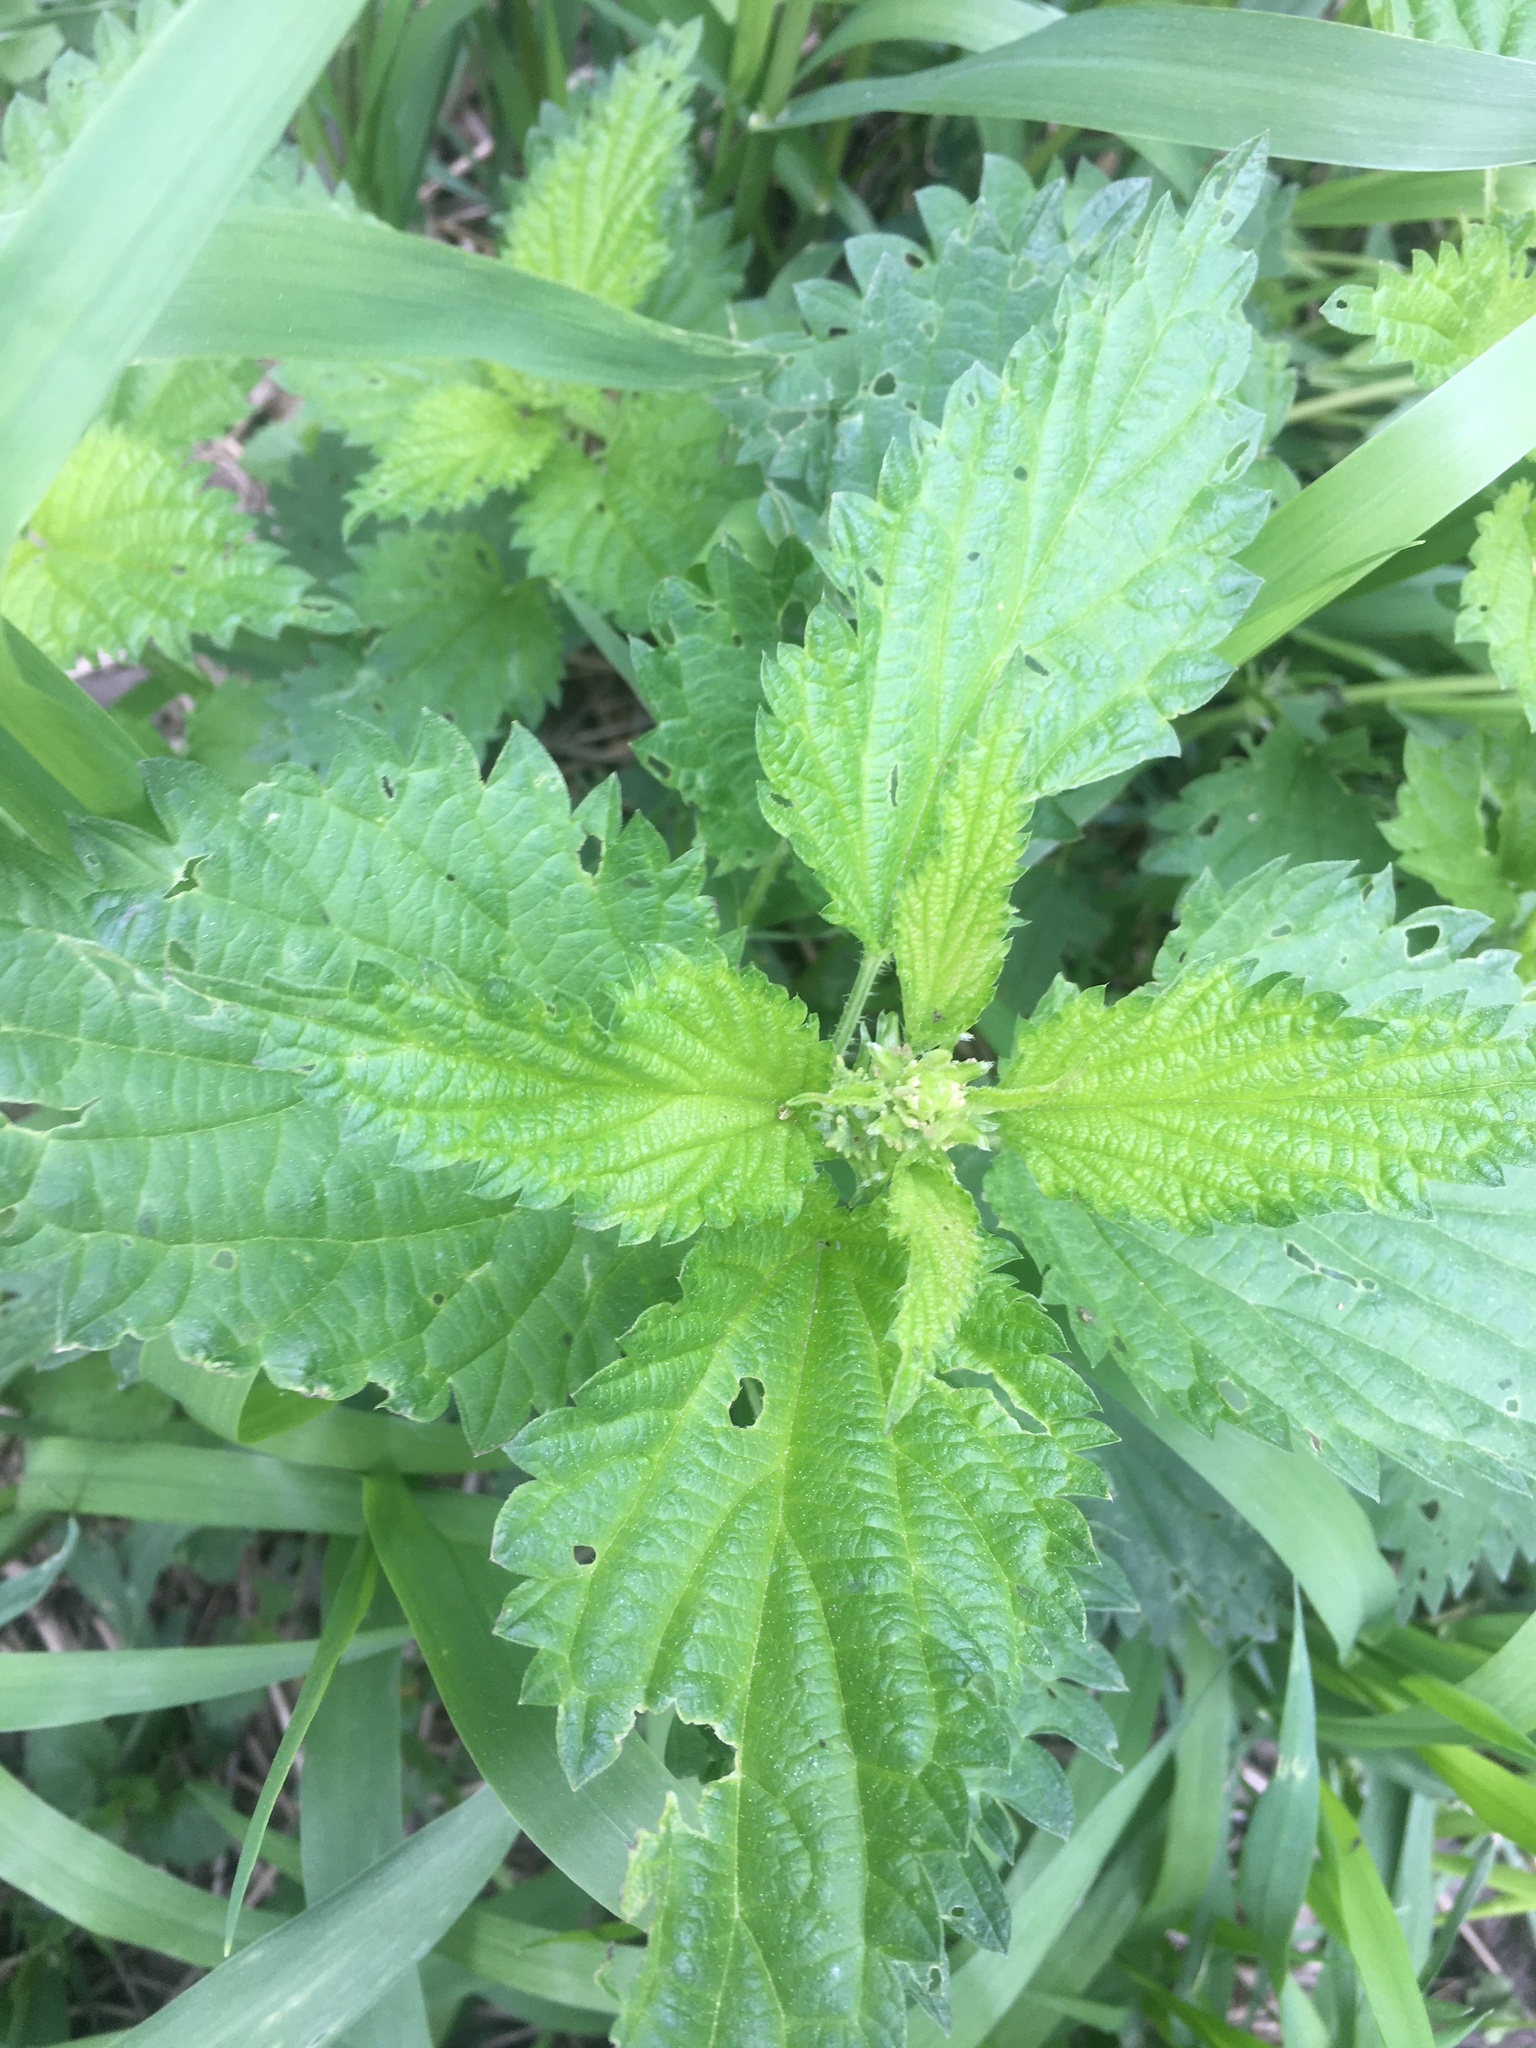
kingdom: Plantae
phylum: Tracheophyta
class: Magnoliopsida
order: Rosales
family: Urticaceae
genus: Urtica
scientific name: Urtica dioica
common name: Common nettle
